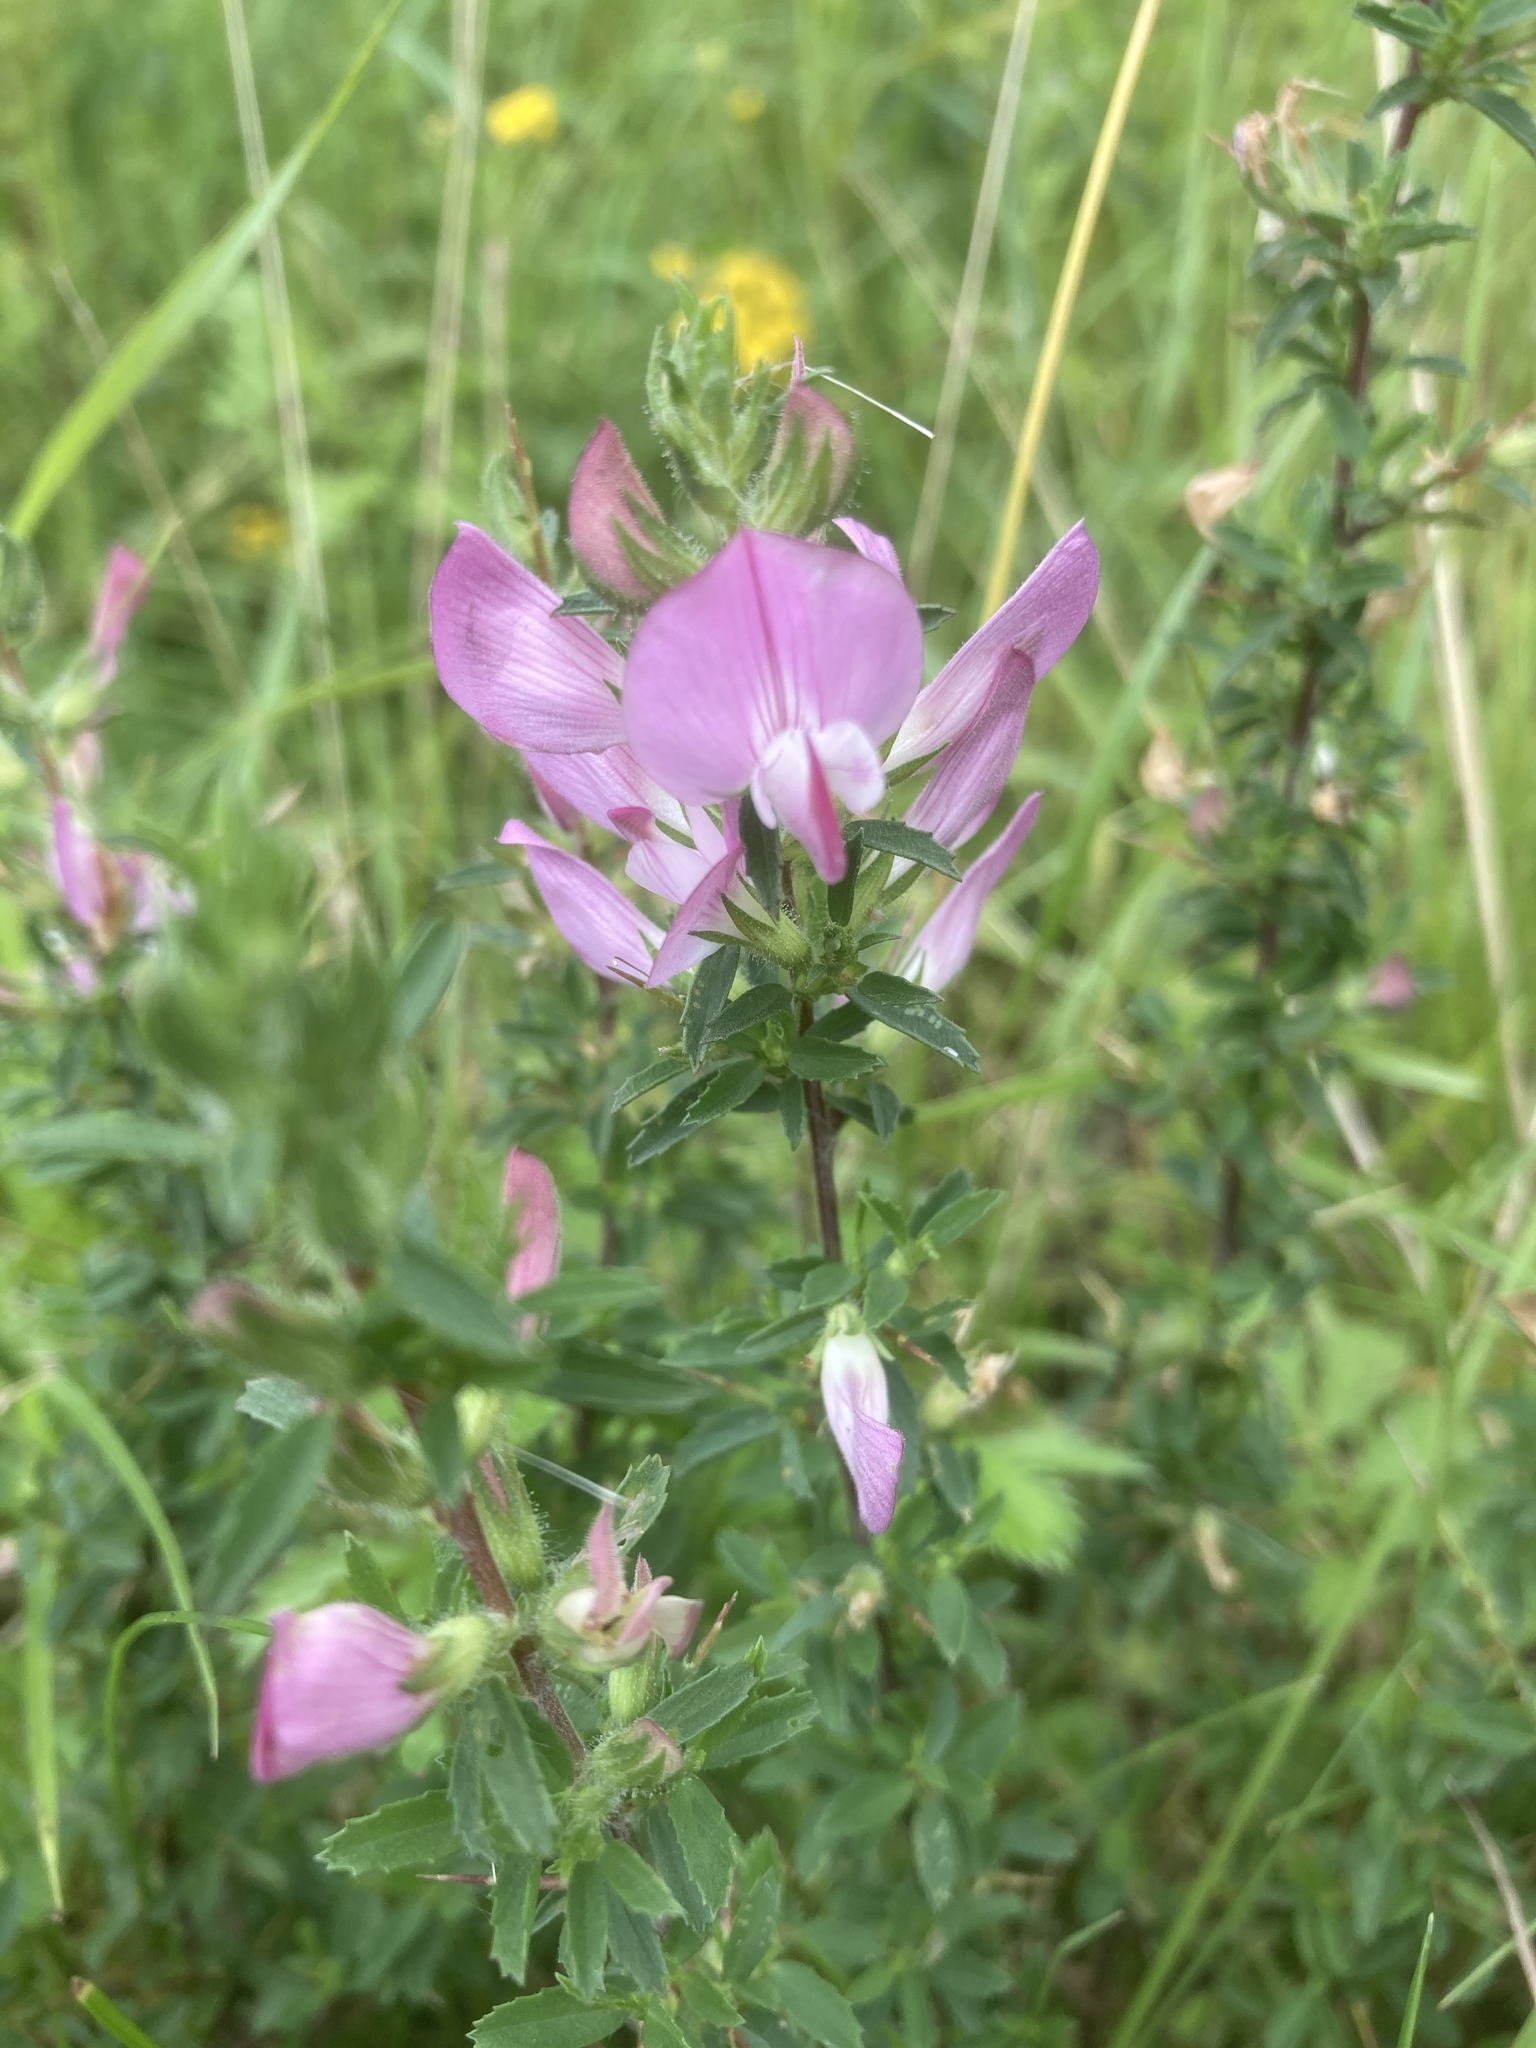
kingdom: Plantae
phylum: Tracheophyta
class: Magnoliopsida
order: Fabales
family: Fabaceae
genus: Ononis
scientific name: Ononis spinosa
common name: Spiny restharrow
